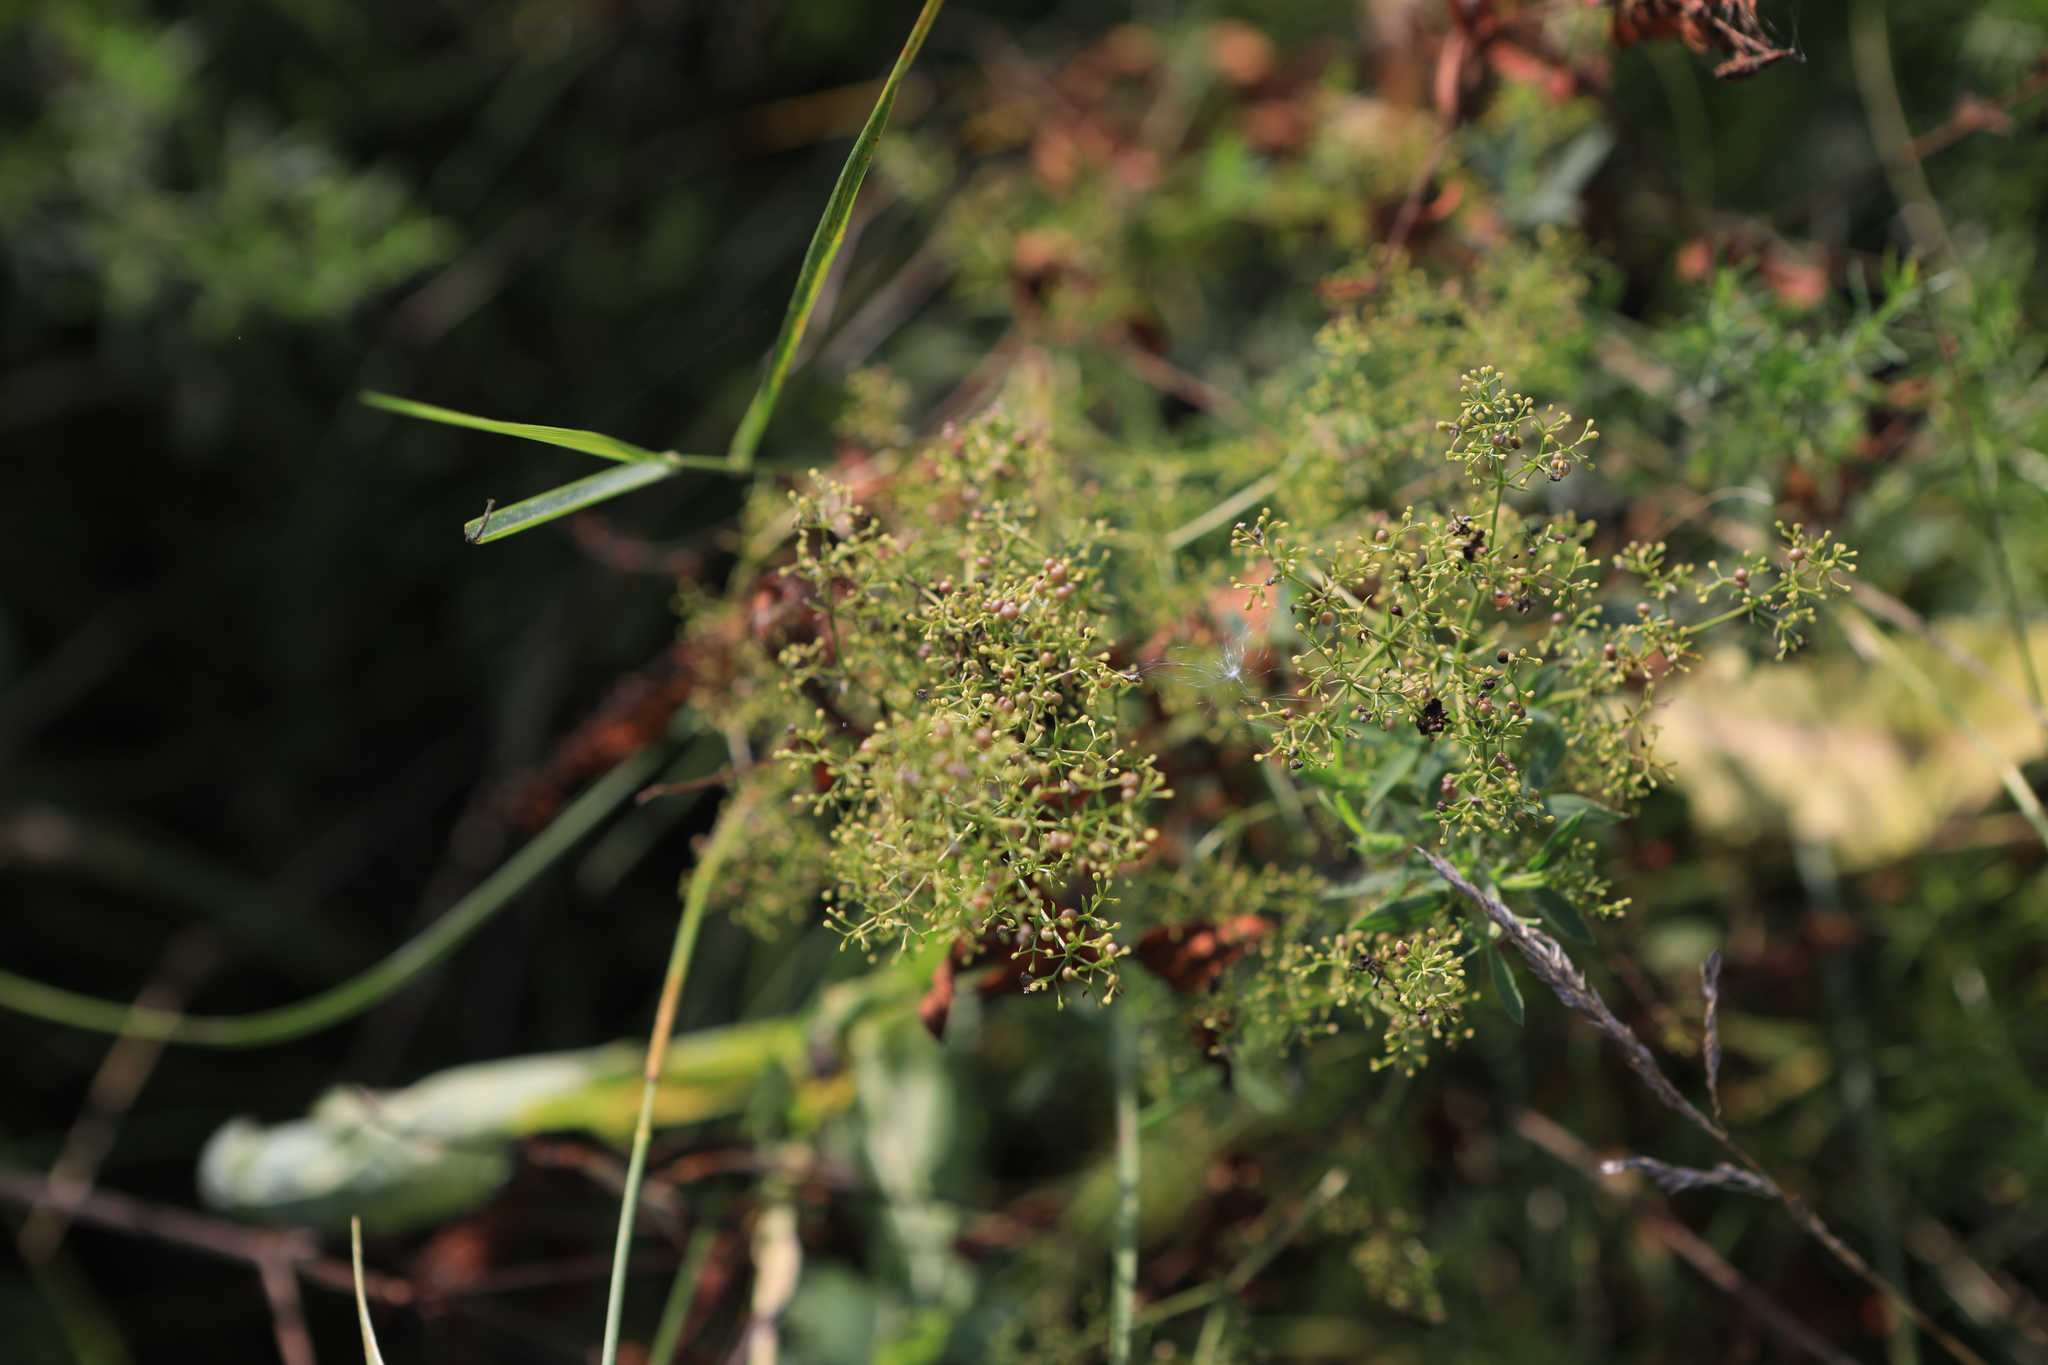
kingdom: Plantae
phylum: Tracheophyta
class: Magnoliopsida
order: Gentianales
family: Rubiaceae
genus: Galium
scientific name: Galium verum
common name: Lady's bedstraw
